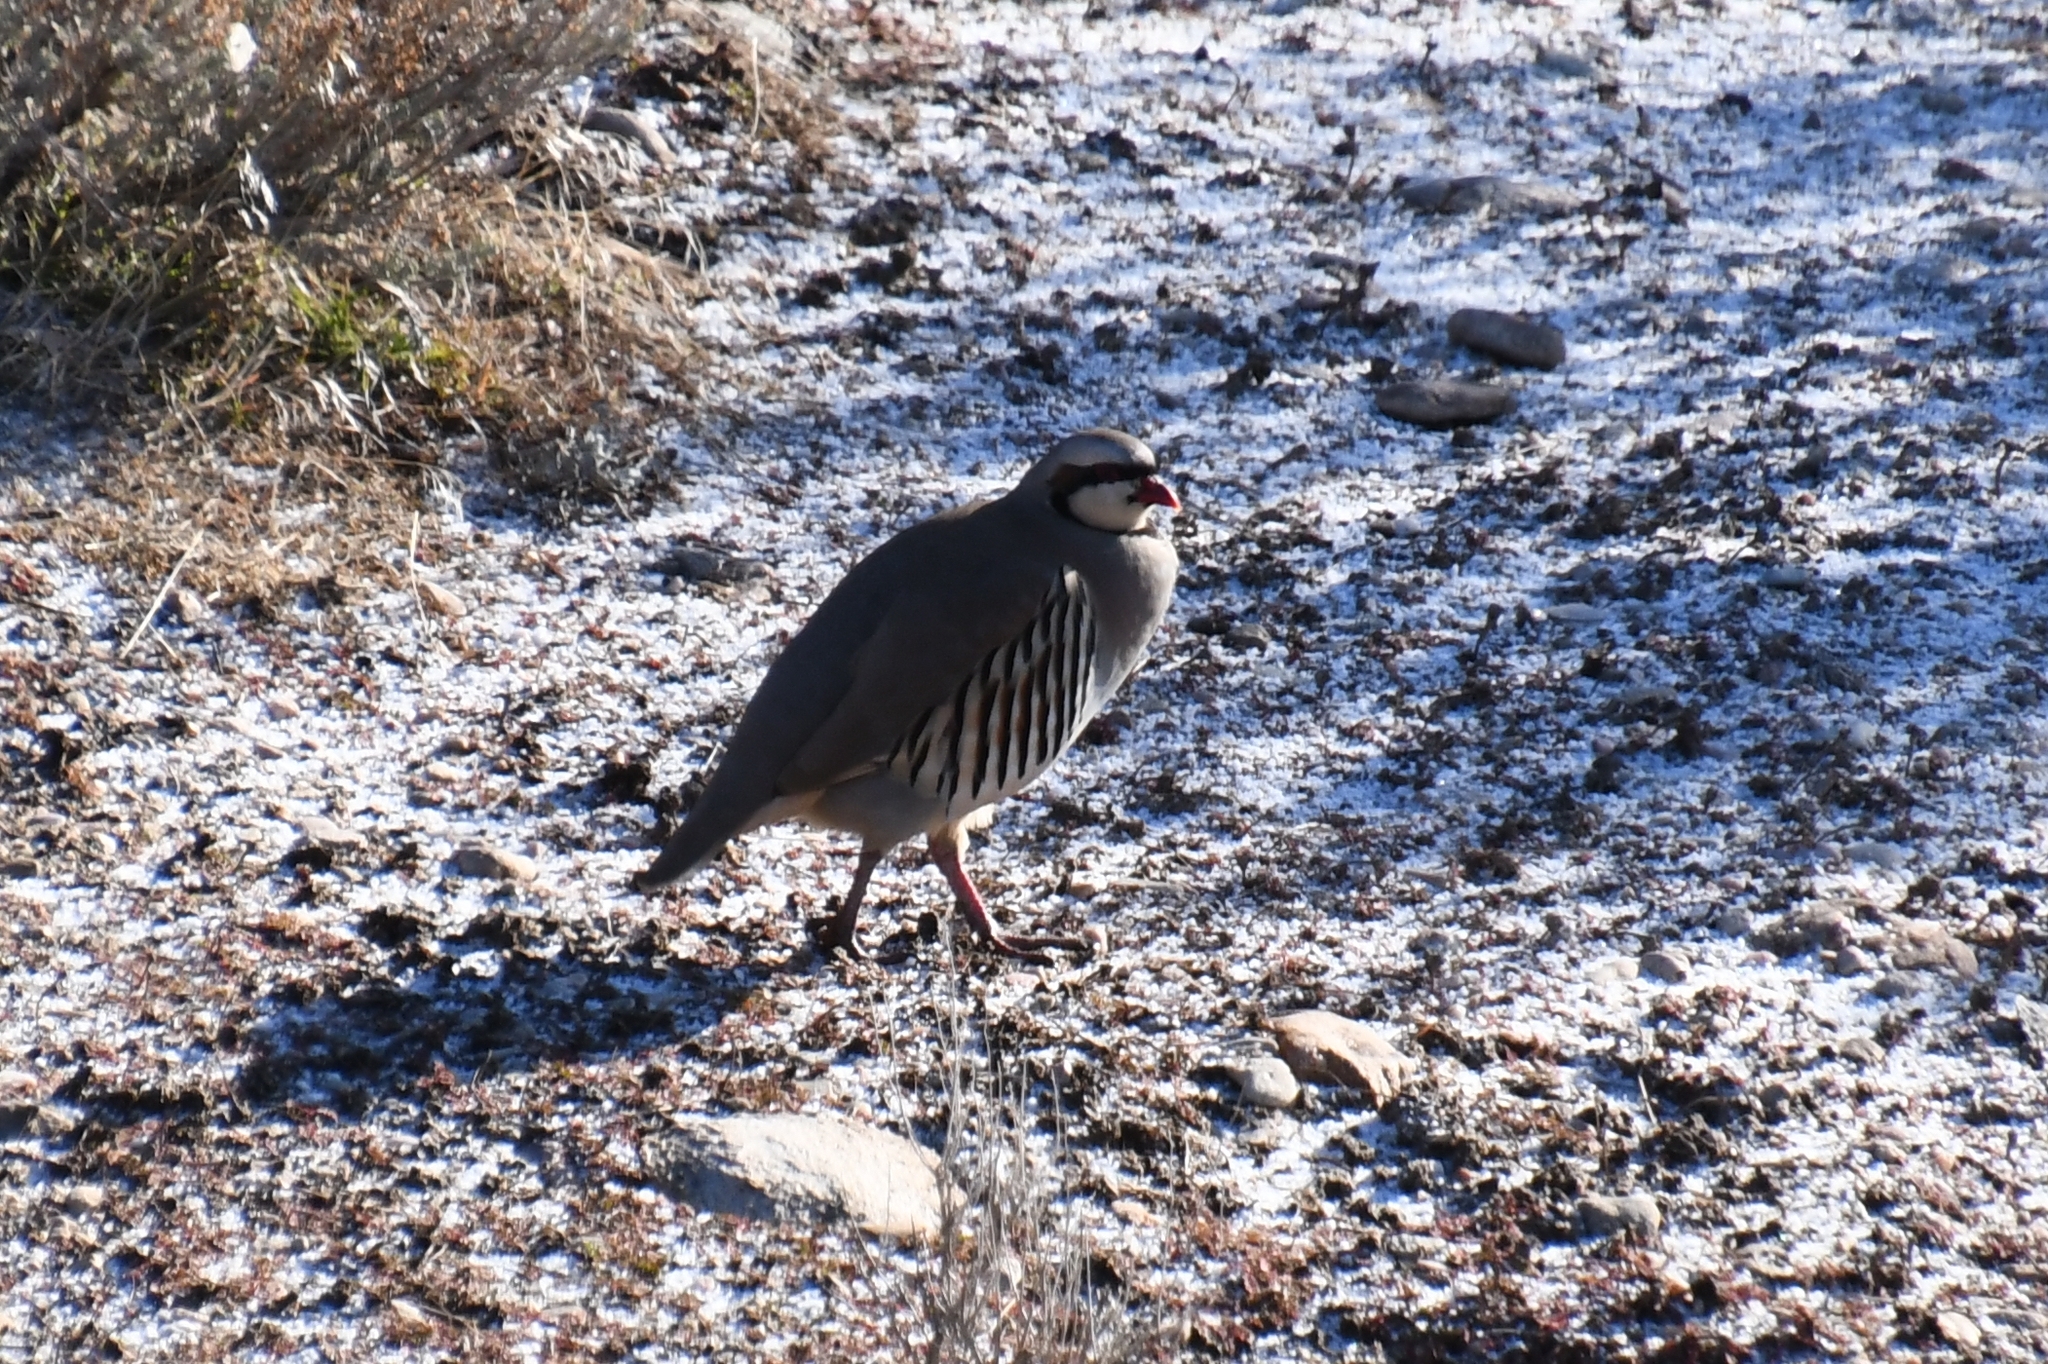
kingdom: Animalia
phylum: Chordata
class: Aves
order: Galliformes
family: Phasianidae
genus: Alectoris
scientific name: Alectoris chukar
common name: Chukar
